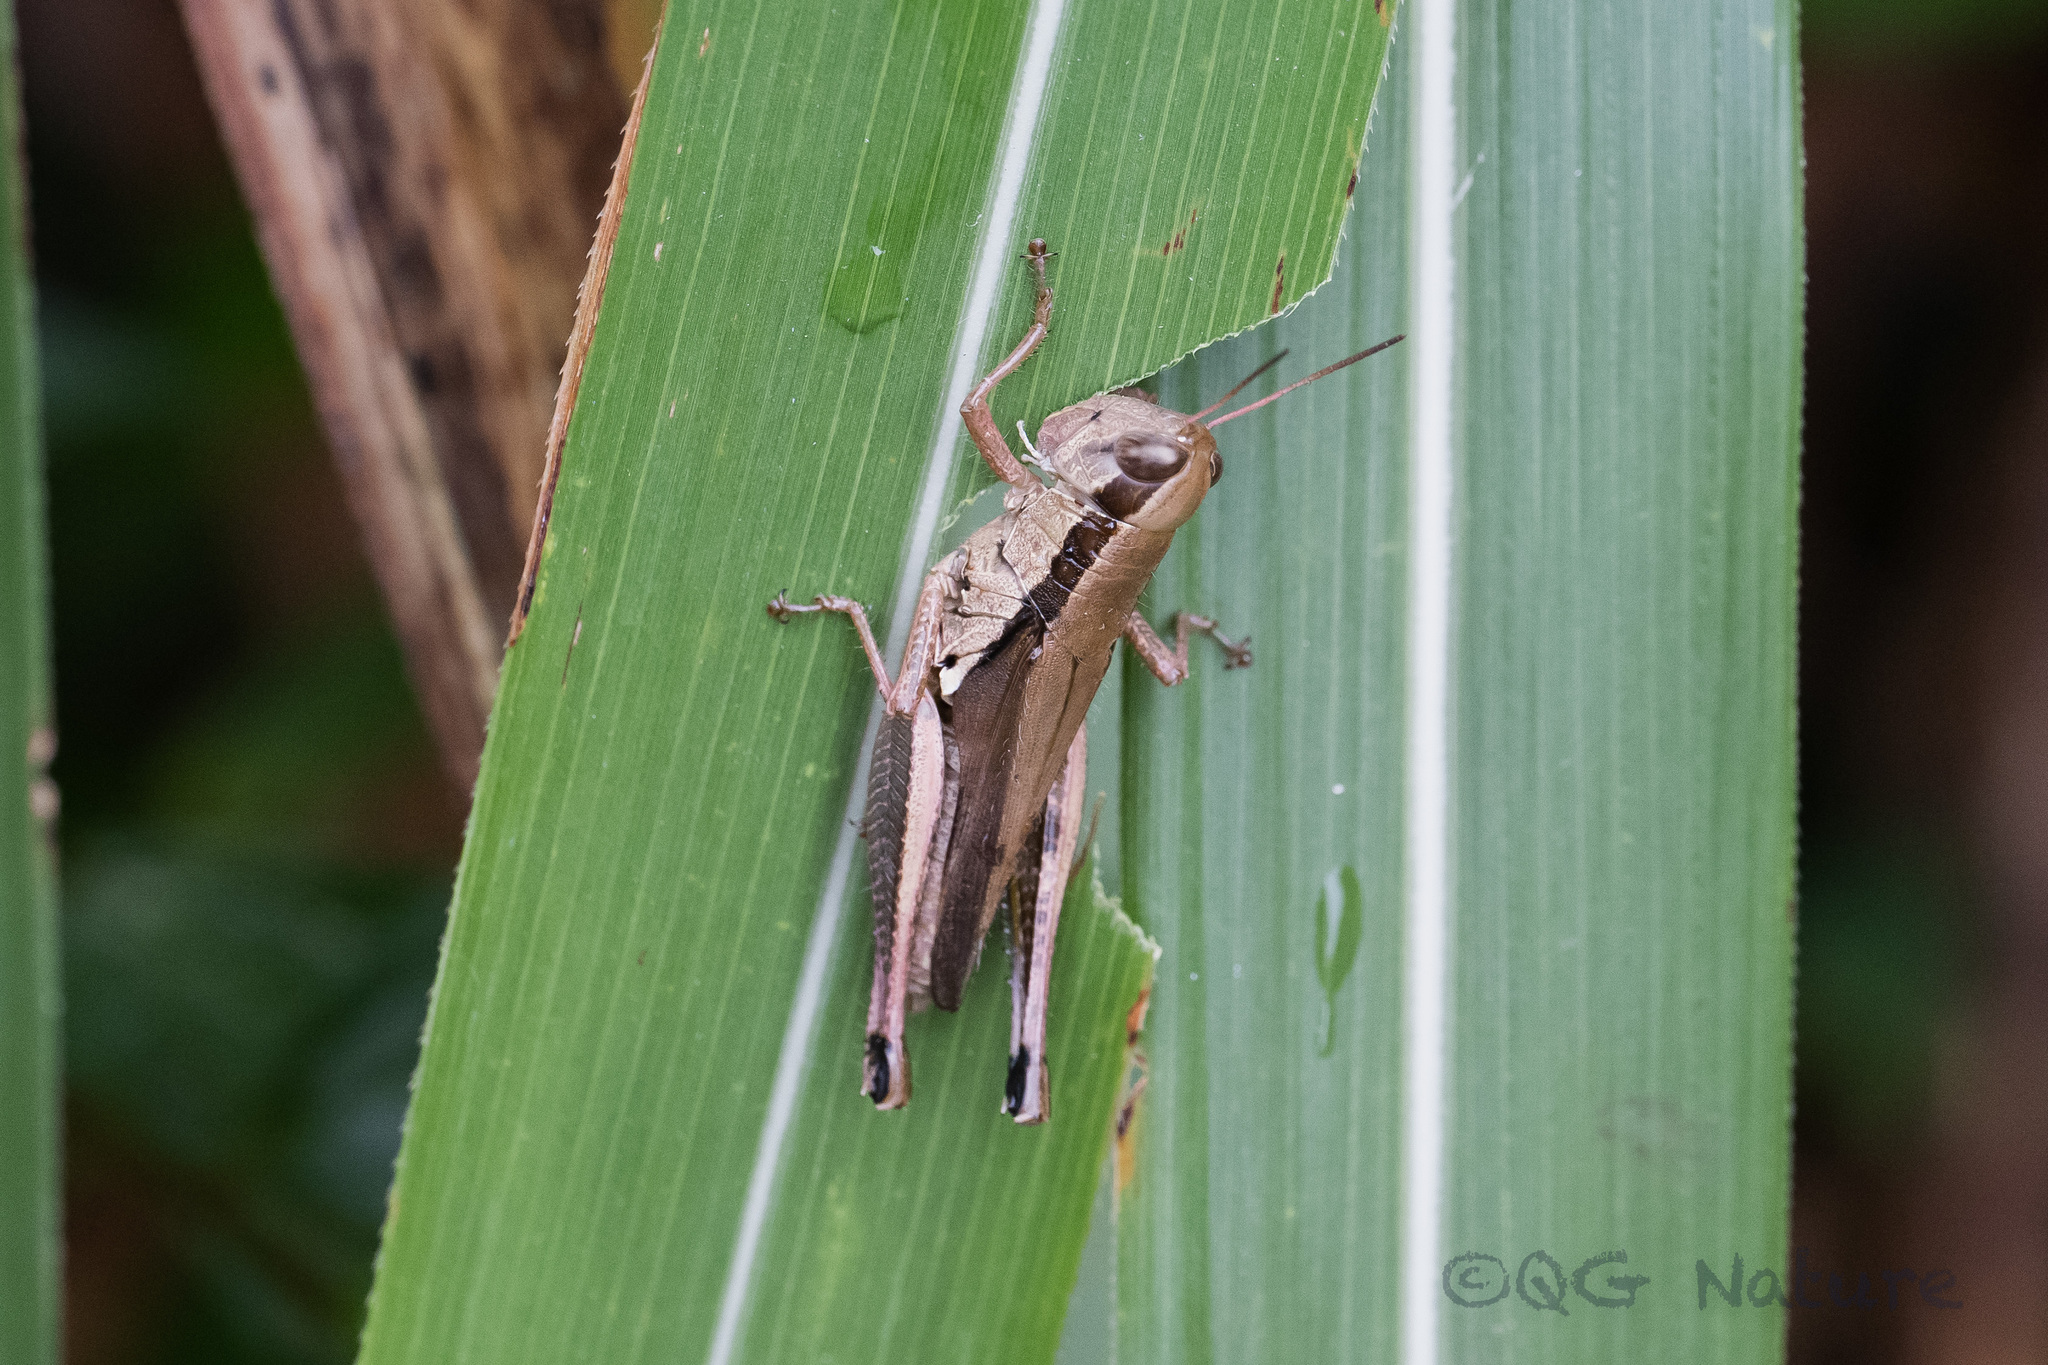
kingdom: Animalia
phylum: Arthropoda
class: Insecta
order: Orthoptera
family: Acrididae
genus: Oxya
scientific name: Oxya yezoensis
